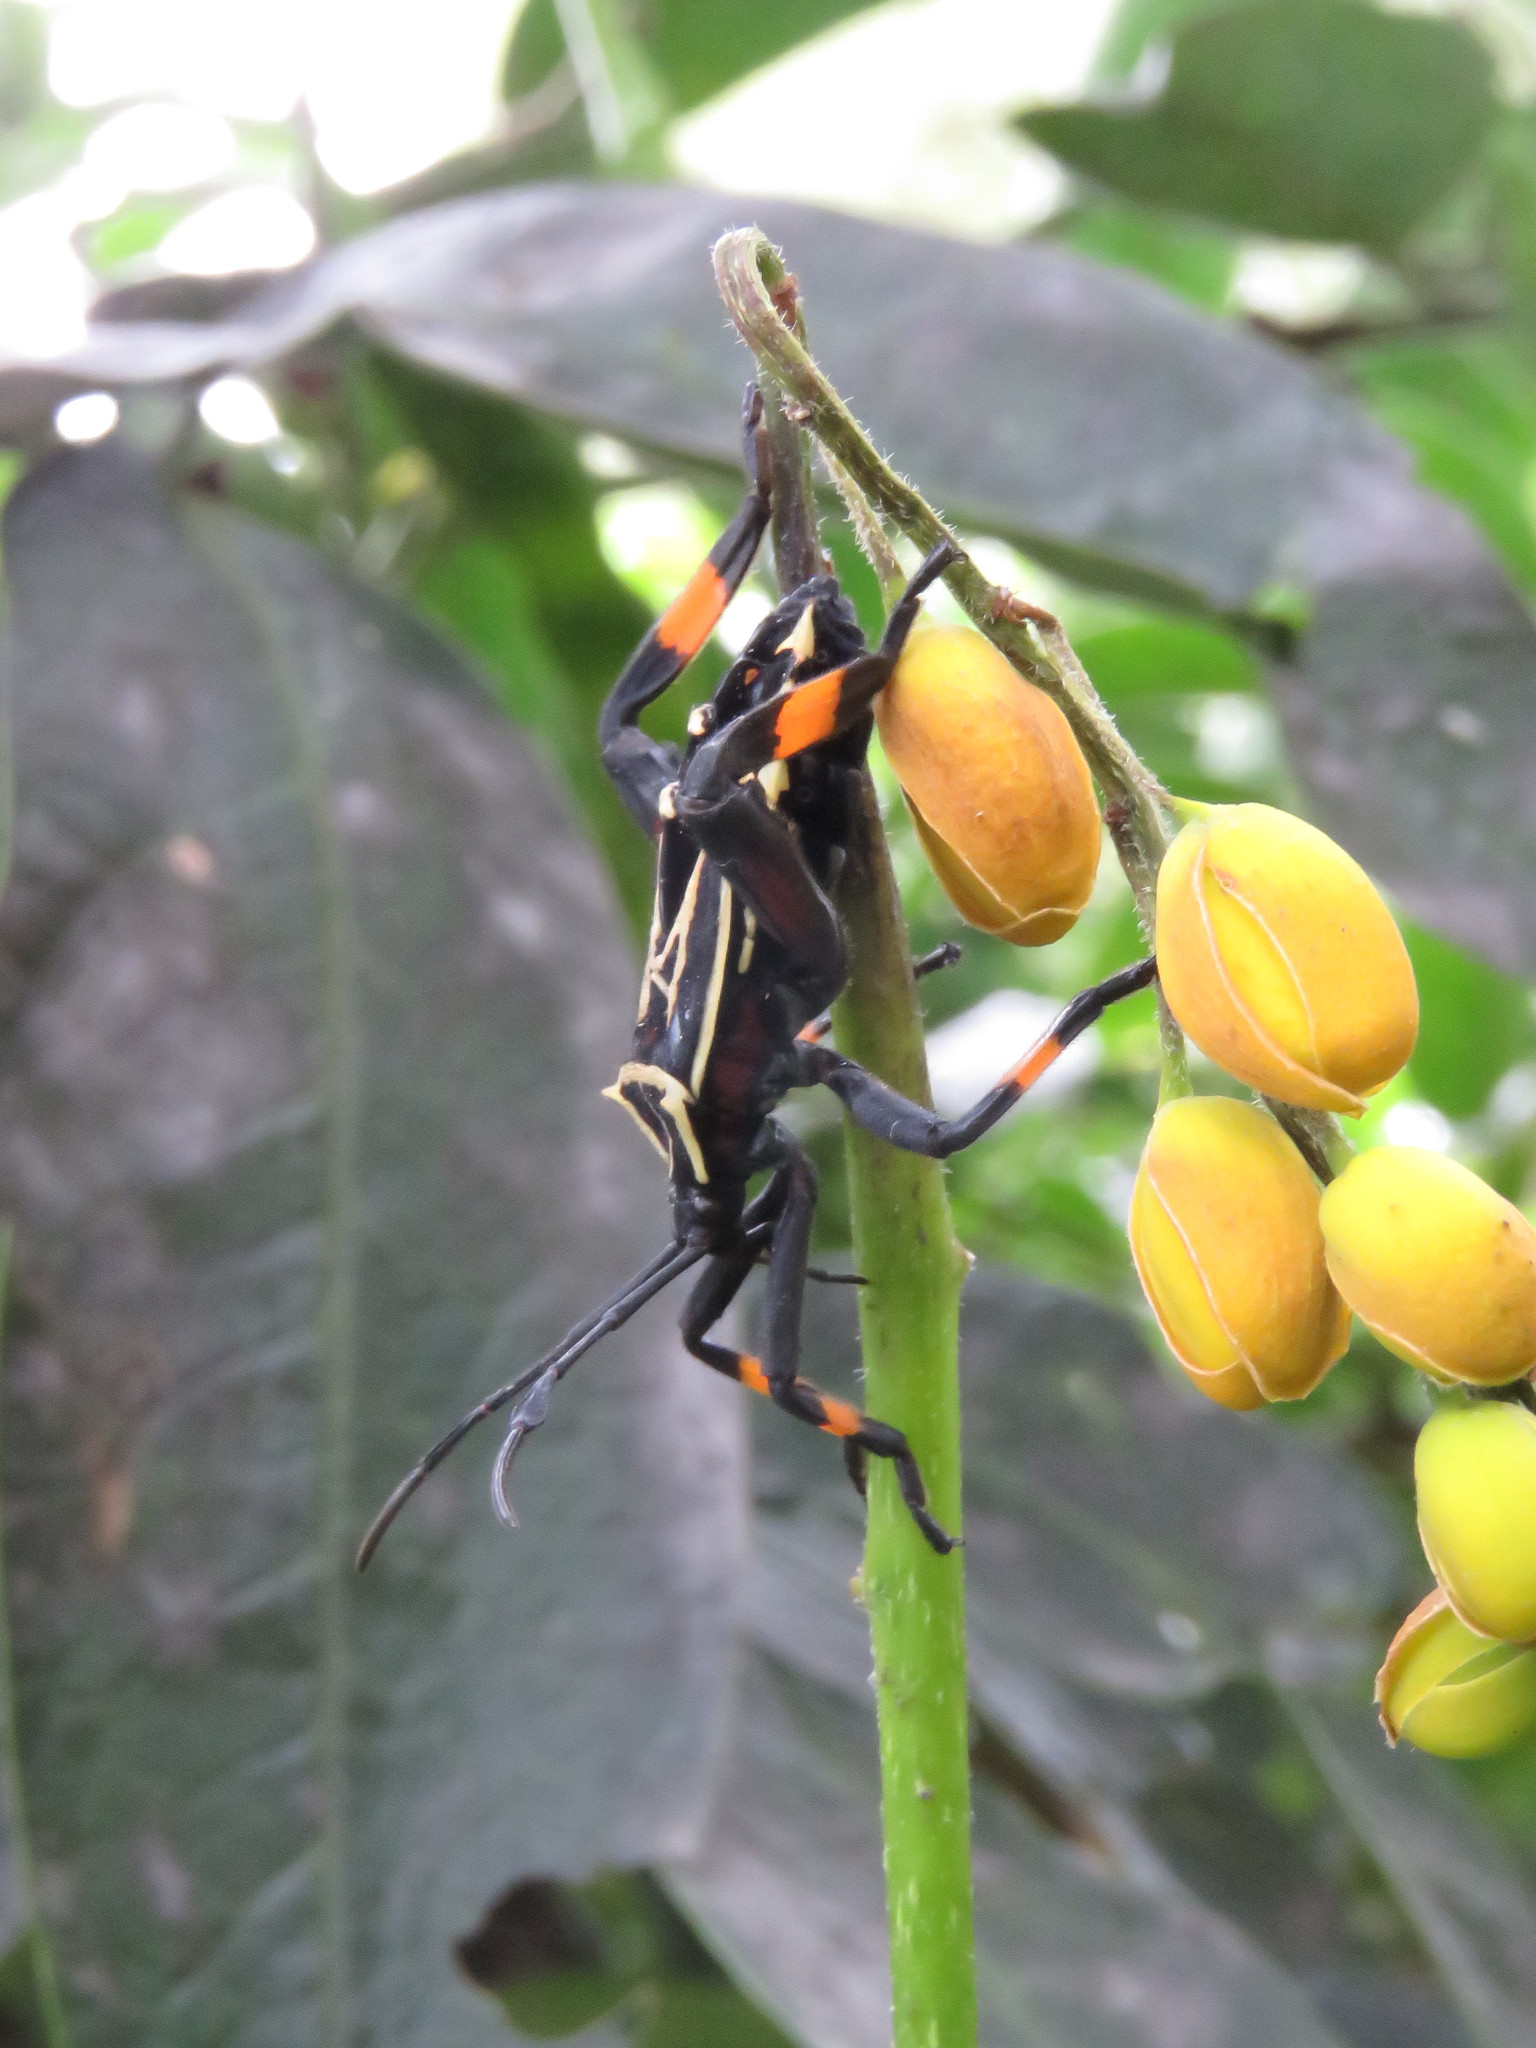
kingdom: Animalia
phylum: Arthropoda
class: Insecta
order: Hemiptera
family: Coreidae
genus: Thasus
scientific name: Thasus heteropus
